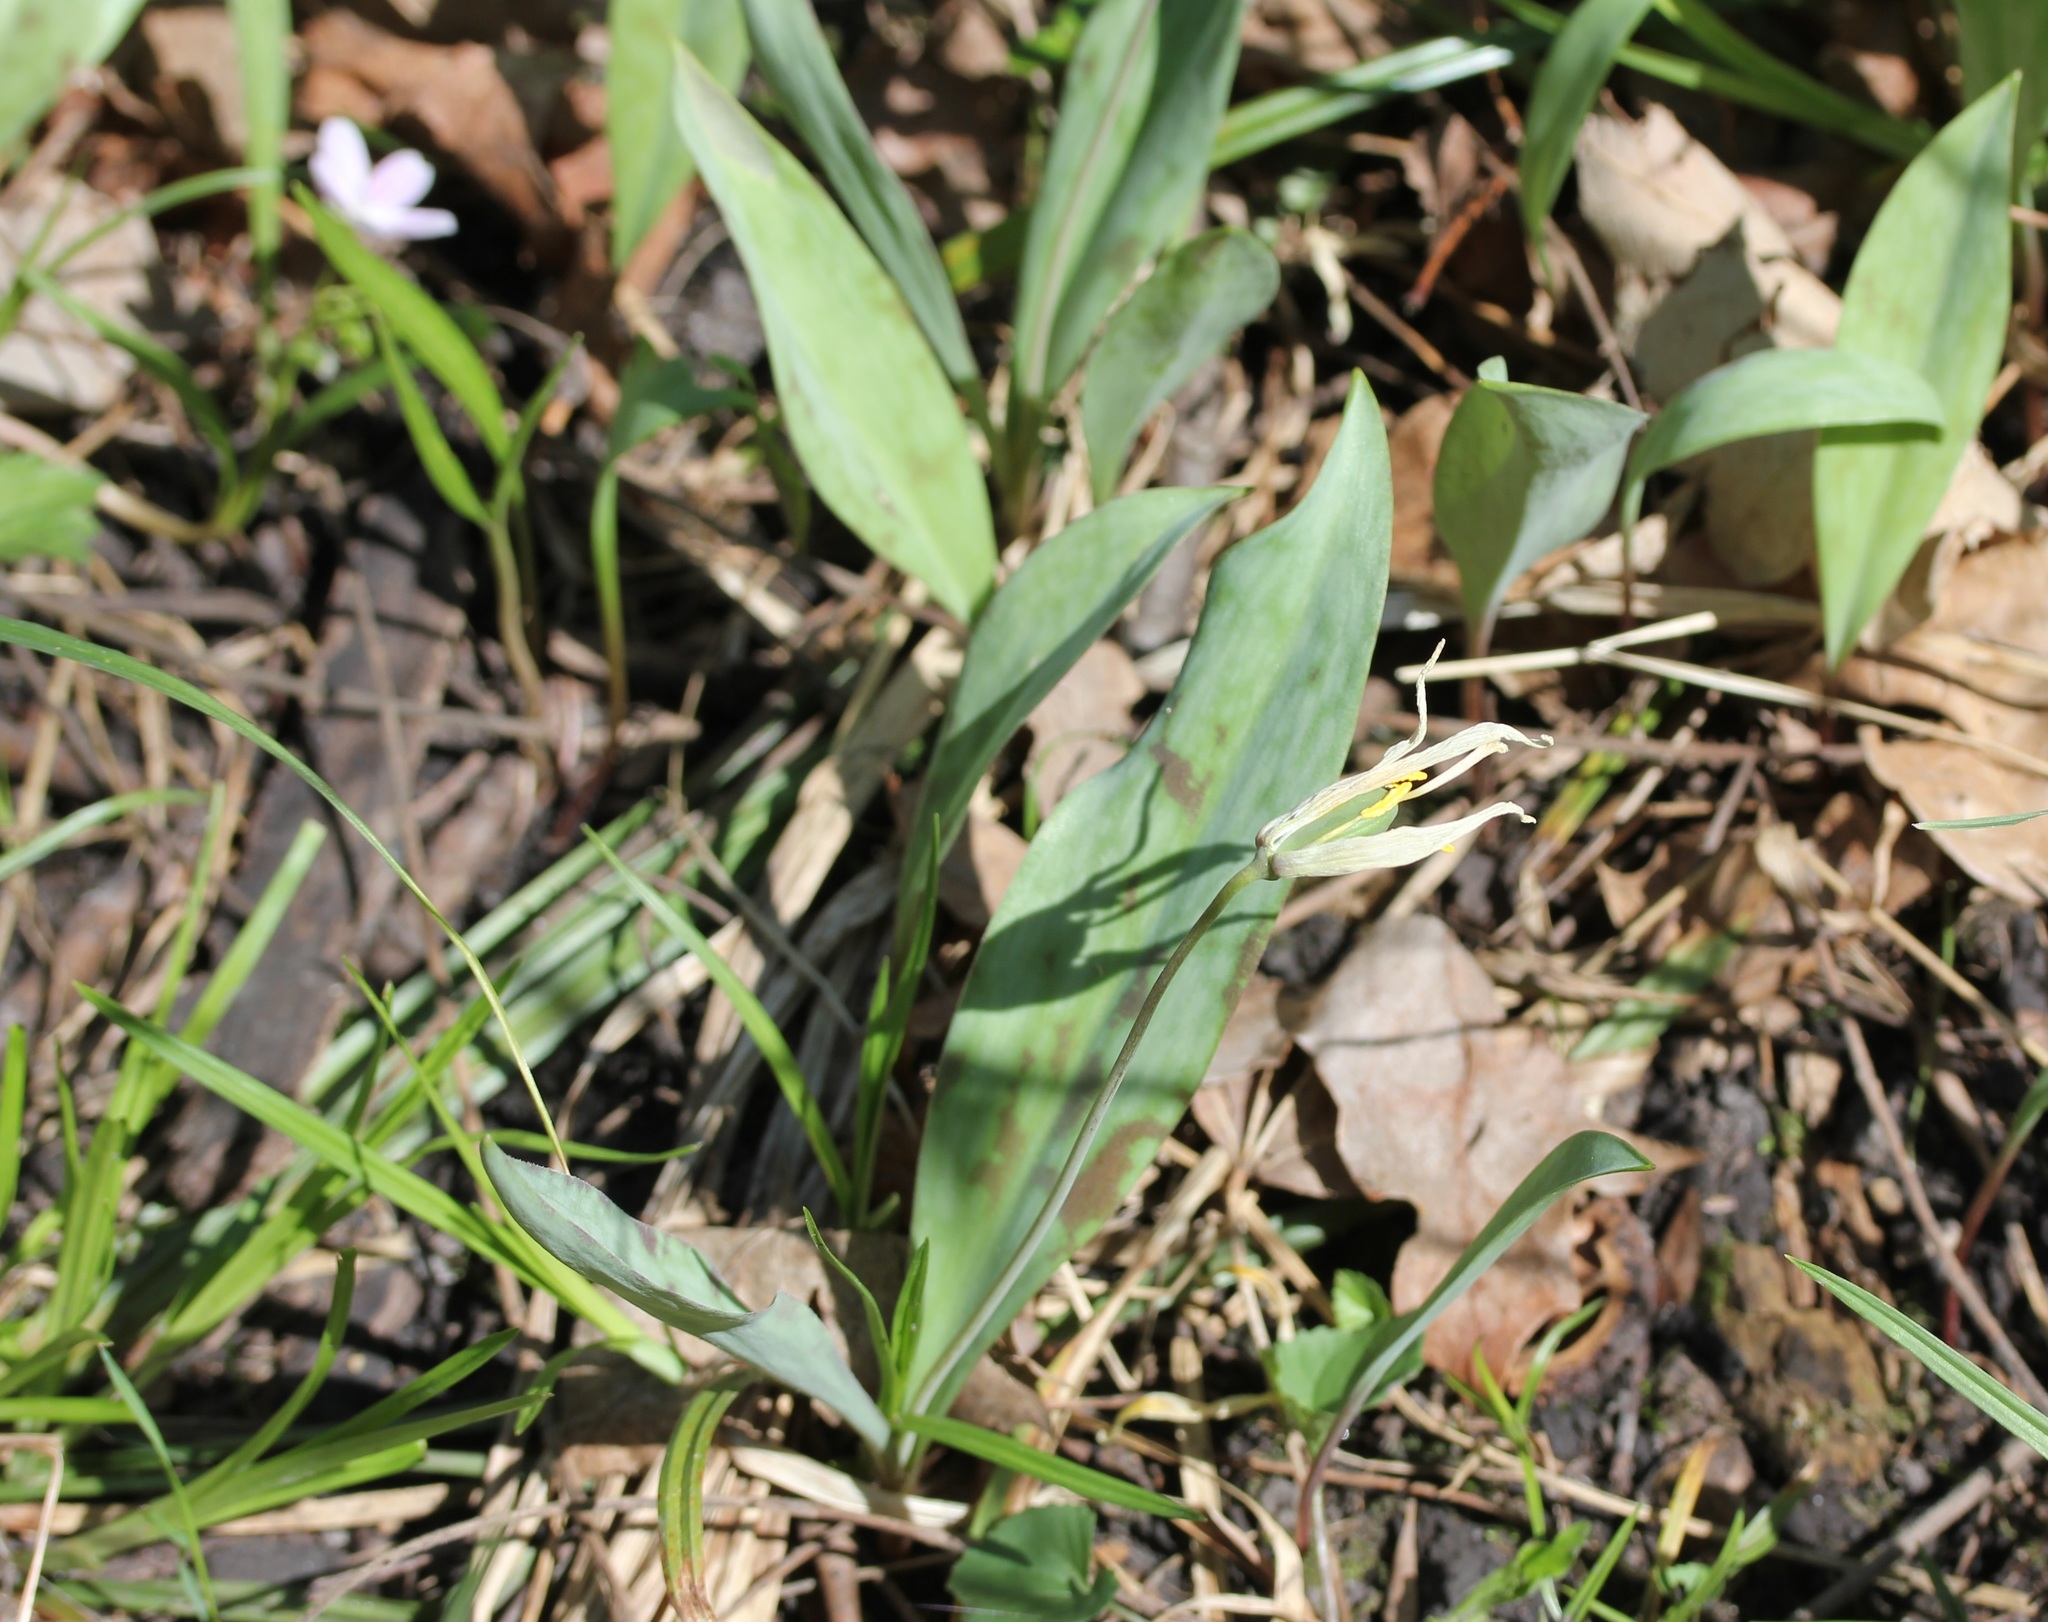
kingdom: Plantae
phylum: Tracheophyta
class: Liliopsida
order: Liliales
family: Liliaceae
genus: Erythronium
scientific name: Erythronium albidum
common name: White trout-lily
